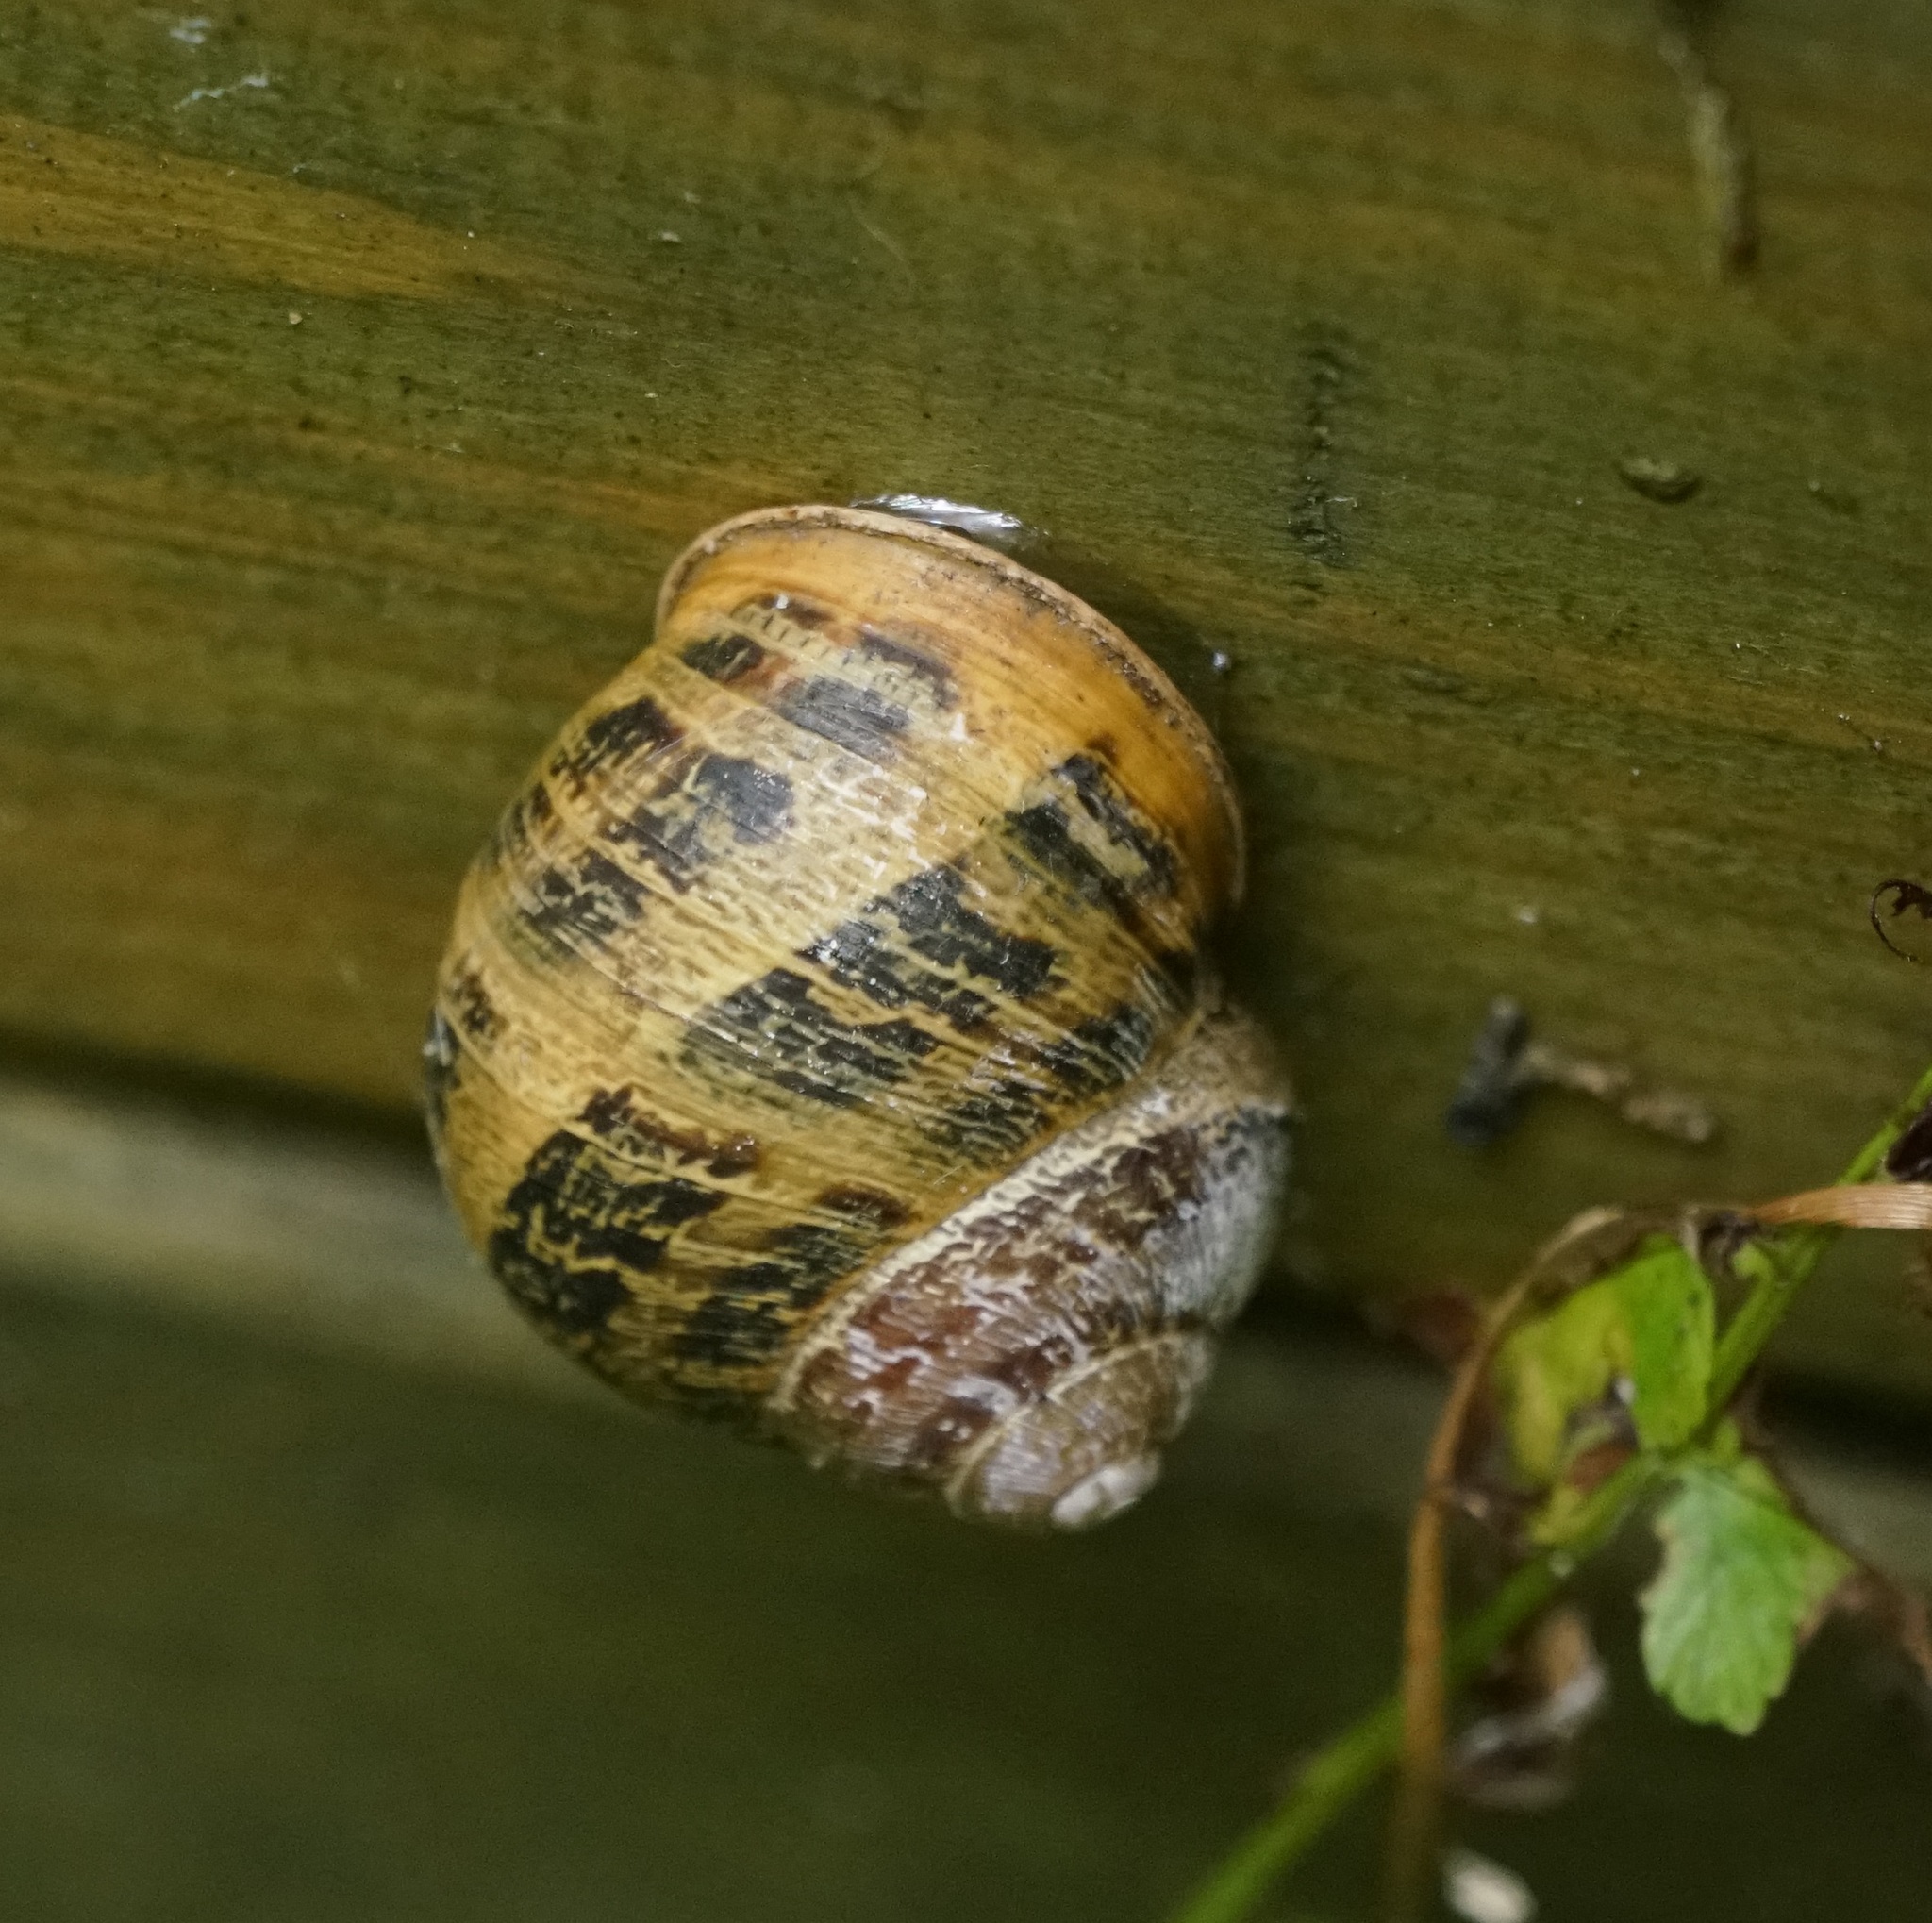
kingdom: Animalia
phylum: Mollusca
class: Gastropoda
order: Stylommatophora
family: Helicidae
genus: Cornu
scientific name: Cornu aspersum
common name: Brown garden snail
